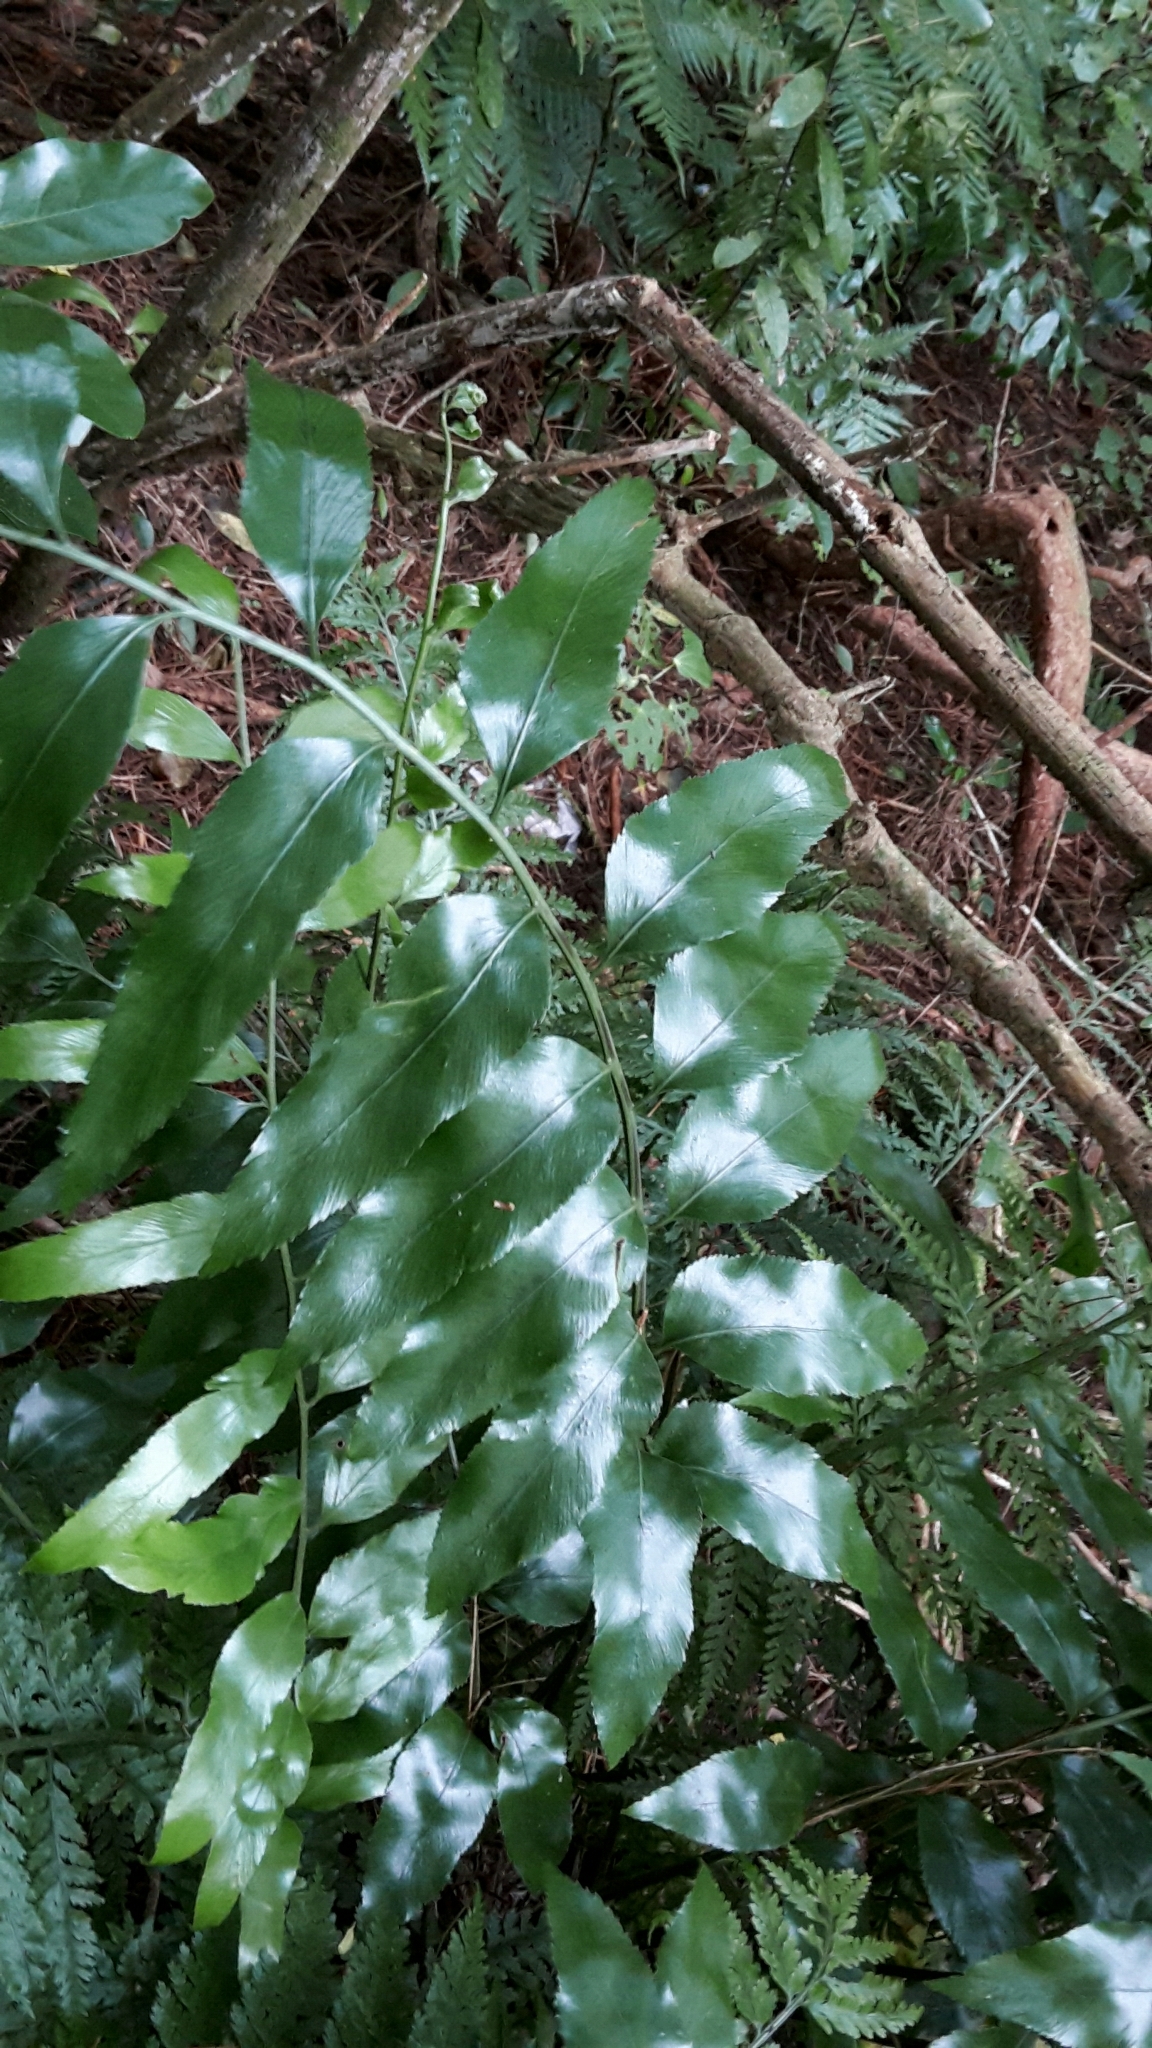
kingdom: Plantae
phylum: Tracheophyta
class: Polypodiopsida
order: Polypodiales
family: Aspleniaceae
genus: Asplenium
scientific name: Asplenium oblongifolium
